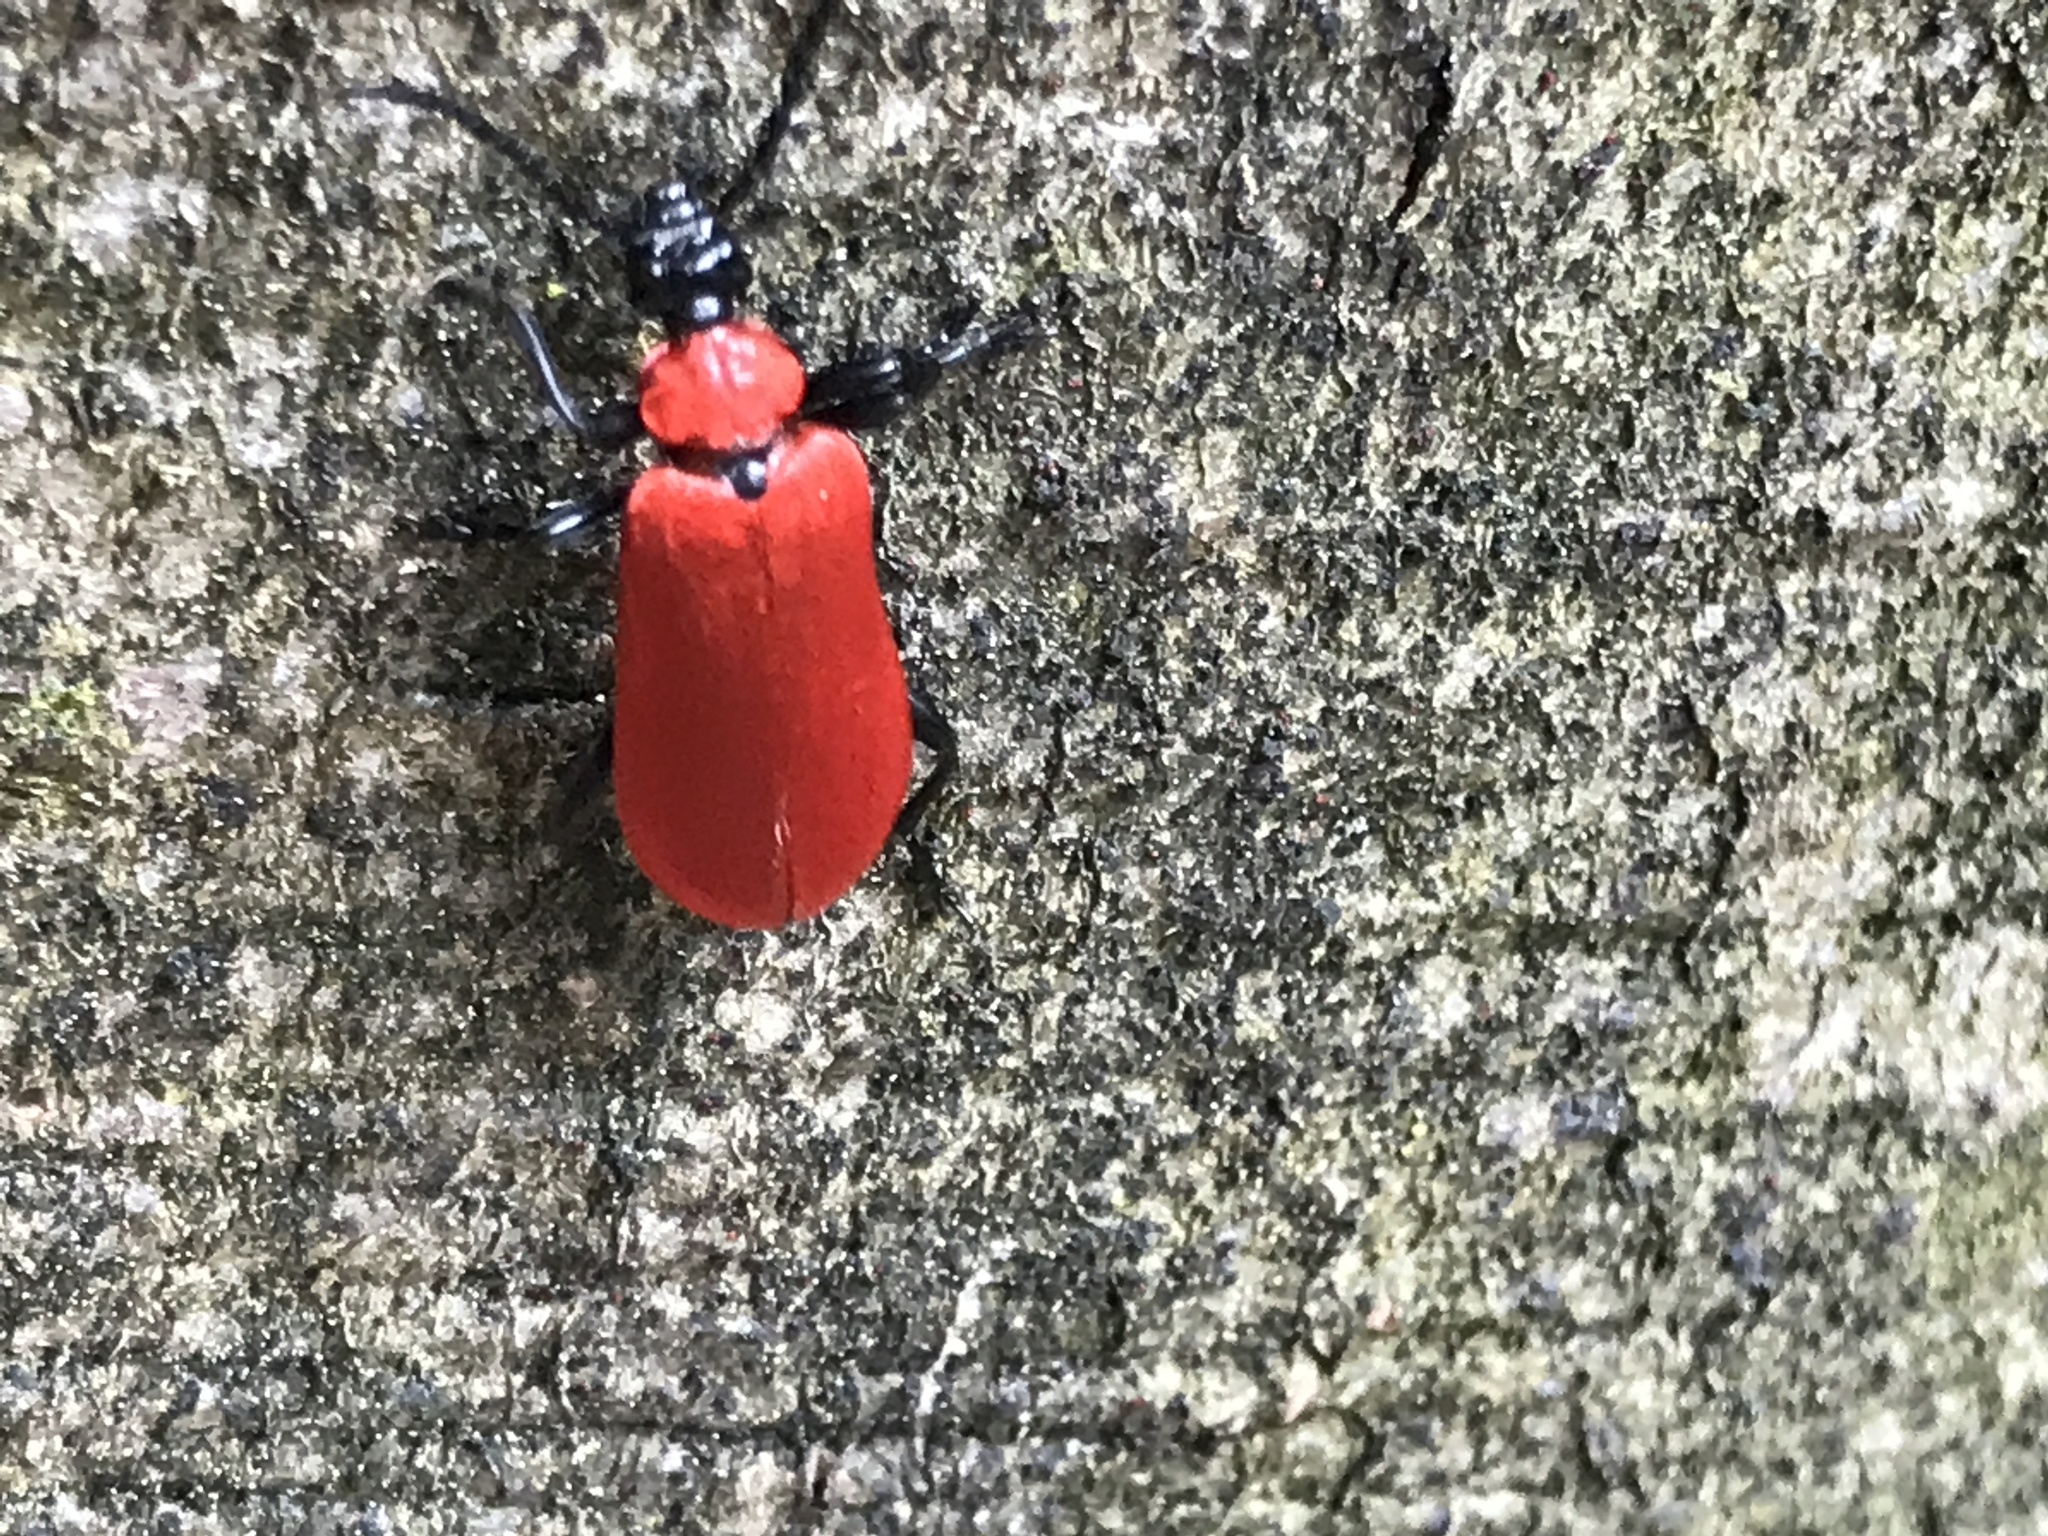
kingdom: Animalia
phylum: Arthropoda
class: Insecta
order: Coleoptera
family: Pyrochroidae
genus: Pyrochroa
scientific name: Pyrochroa coccinea
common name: Black-headed cardinal beetle
